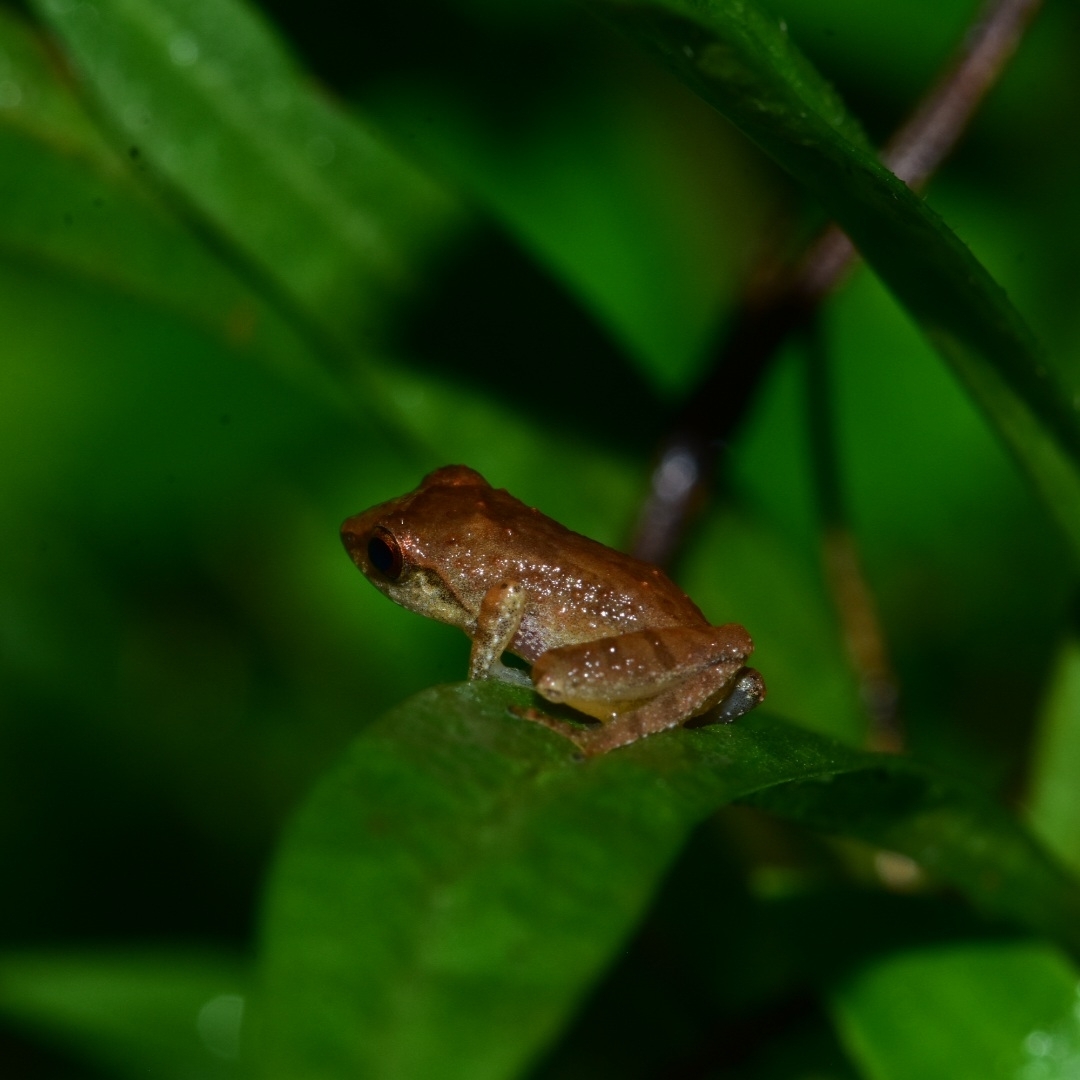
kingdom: Animalia
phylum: Chordata
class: Amphibia
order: Anura
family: Rhacophoridae
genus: Pseudophilautus
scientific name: Pseudophilautus wynaadensis
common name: Dark-eared bush frog
